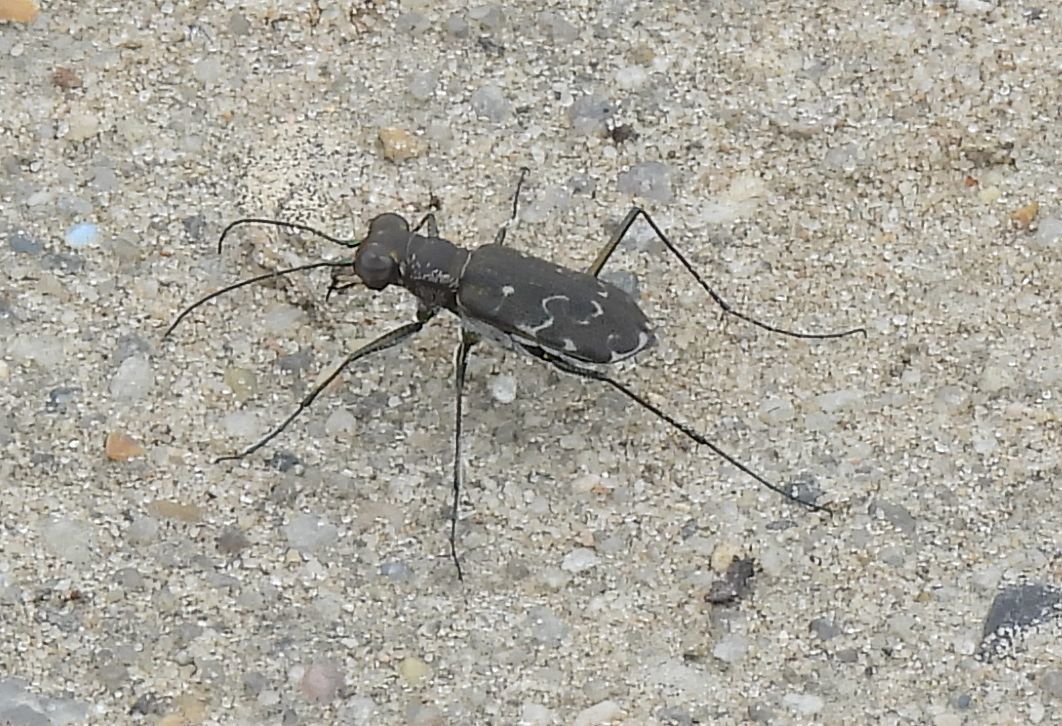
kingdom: Animalia
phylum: Arthropoda
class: Insecta
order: Coleoptera
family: Carabidae
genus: Cicindela
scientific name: Cicindela trifasciata
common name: Mudflat tiger beetle
